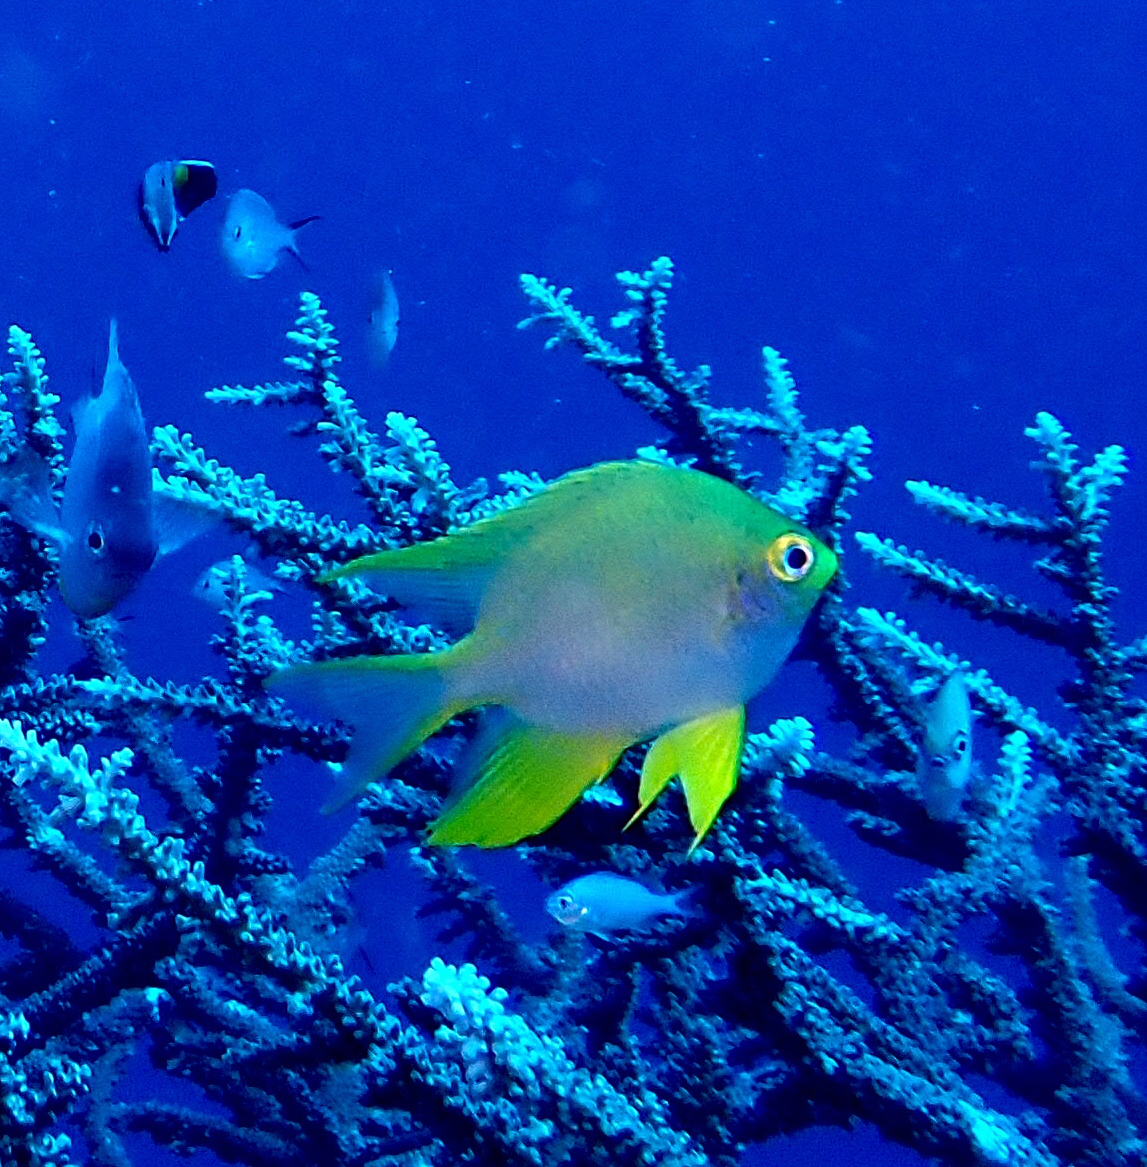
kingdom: Animalia
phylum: Chordata
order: Perciformes
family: Pomacentridae
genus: Amblyglyphidodon
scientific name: Amblyglyphidodon aureus
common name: Golden damsel
